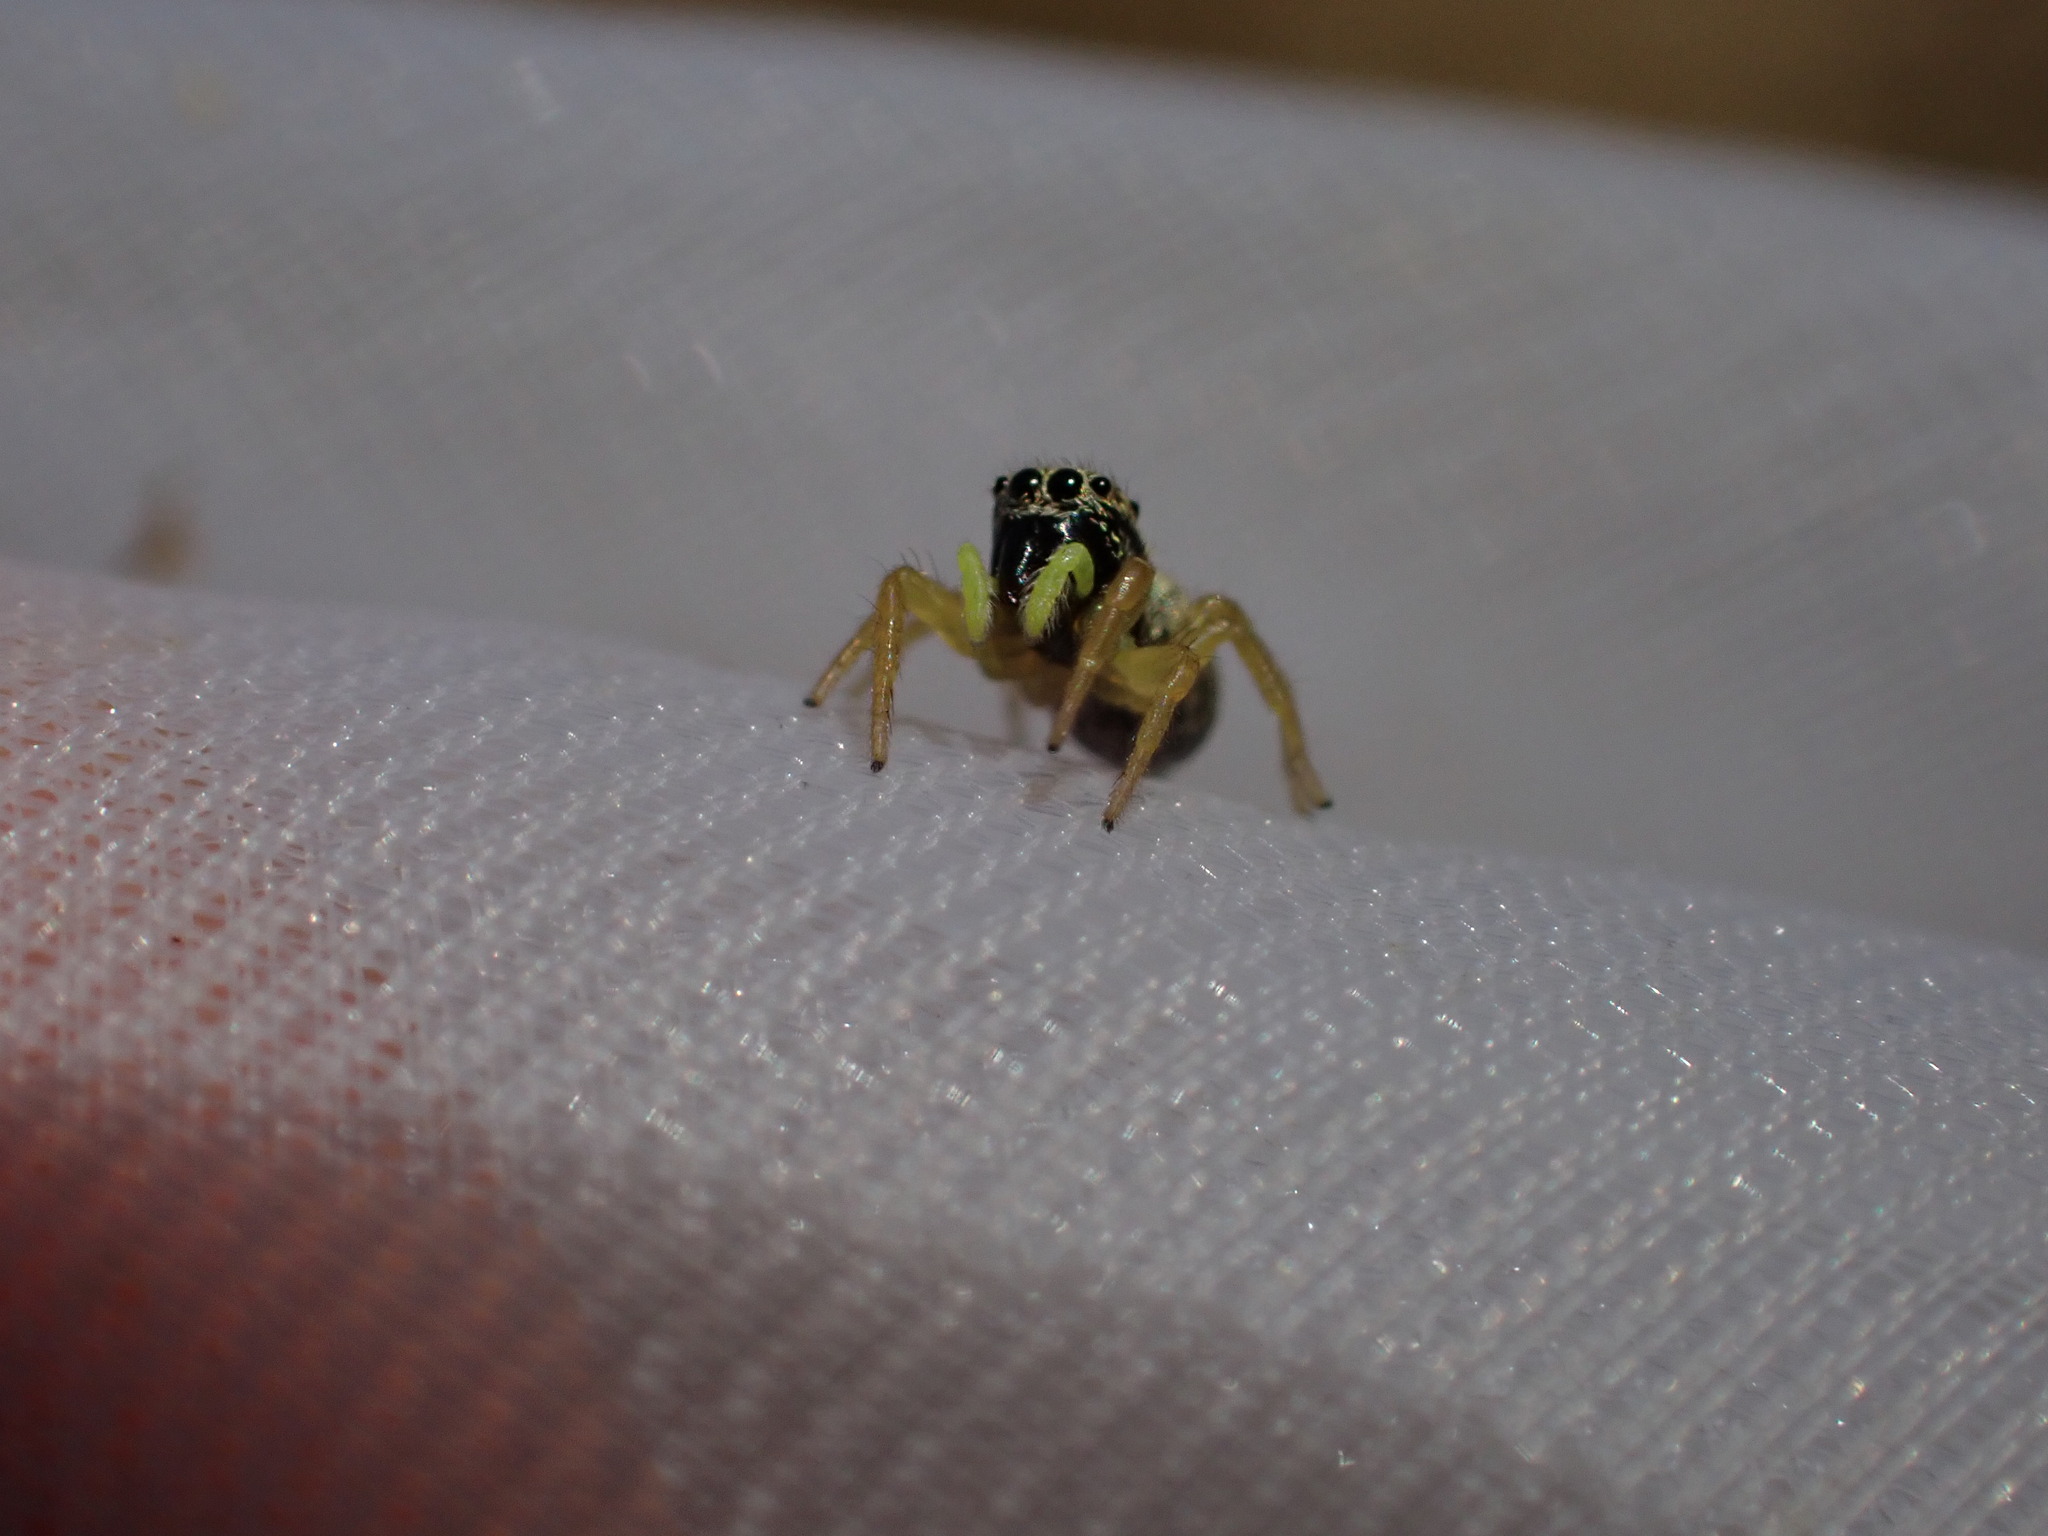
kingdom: Animalia
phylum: Arthropoda
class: Arachnida
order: Araneae
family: Salticidae
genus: Heliophanus
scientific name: Heliophanus
